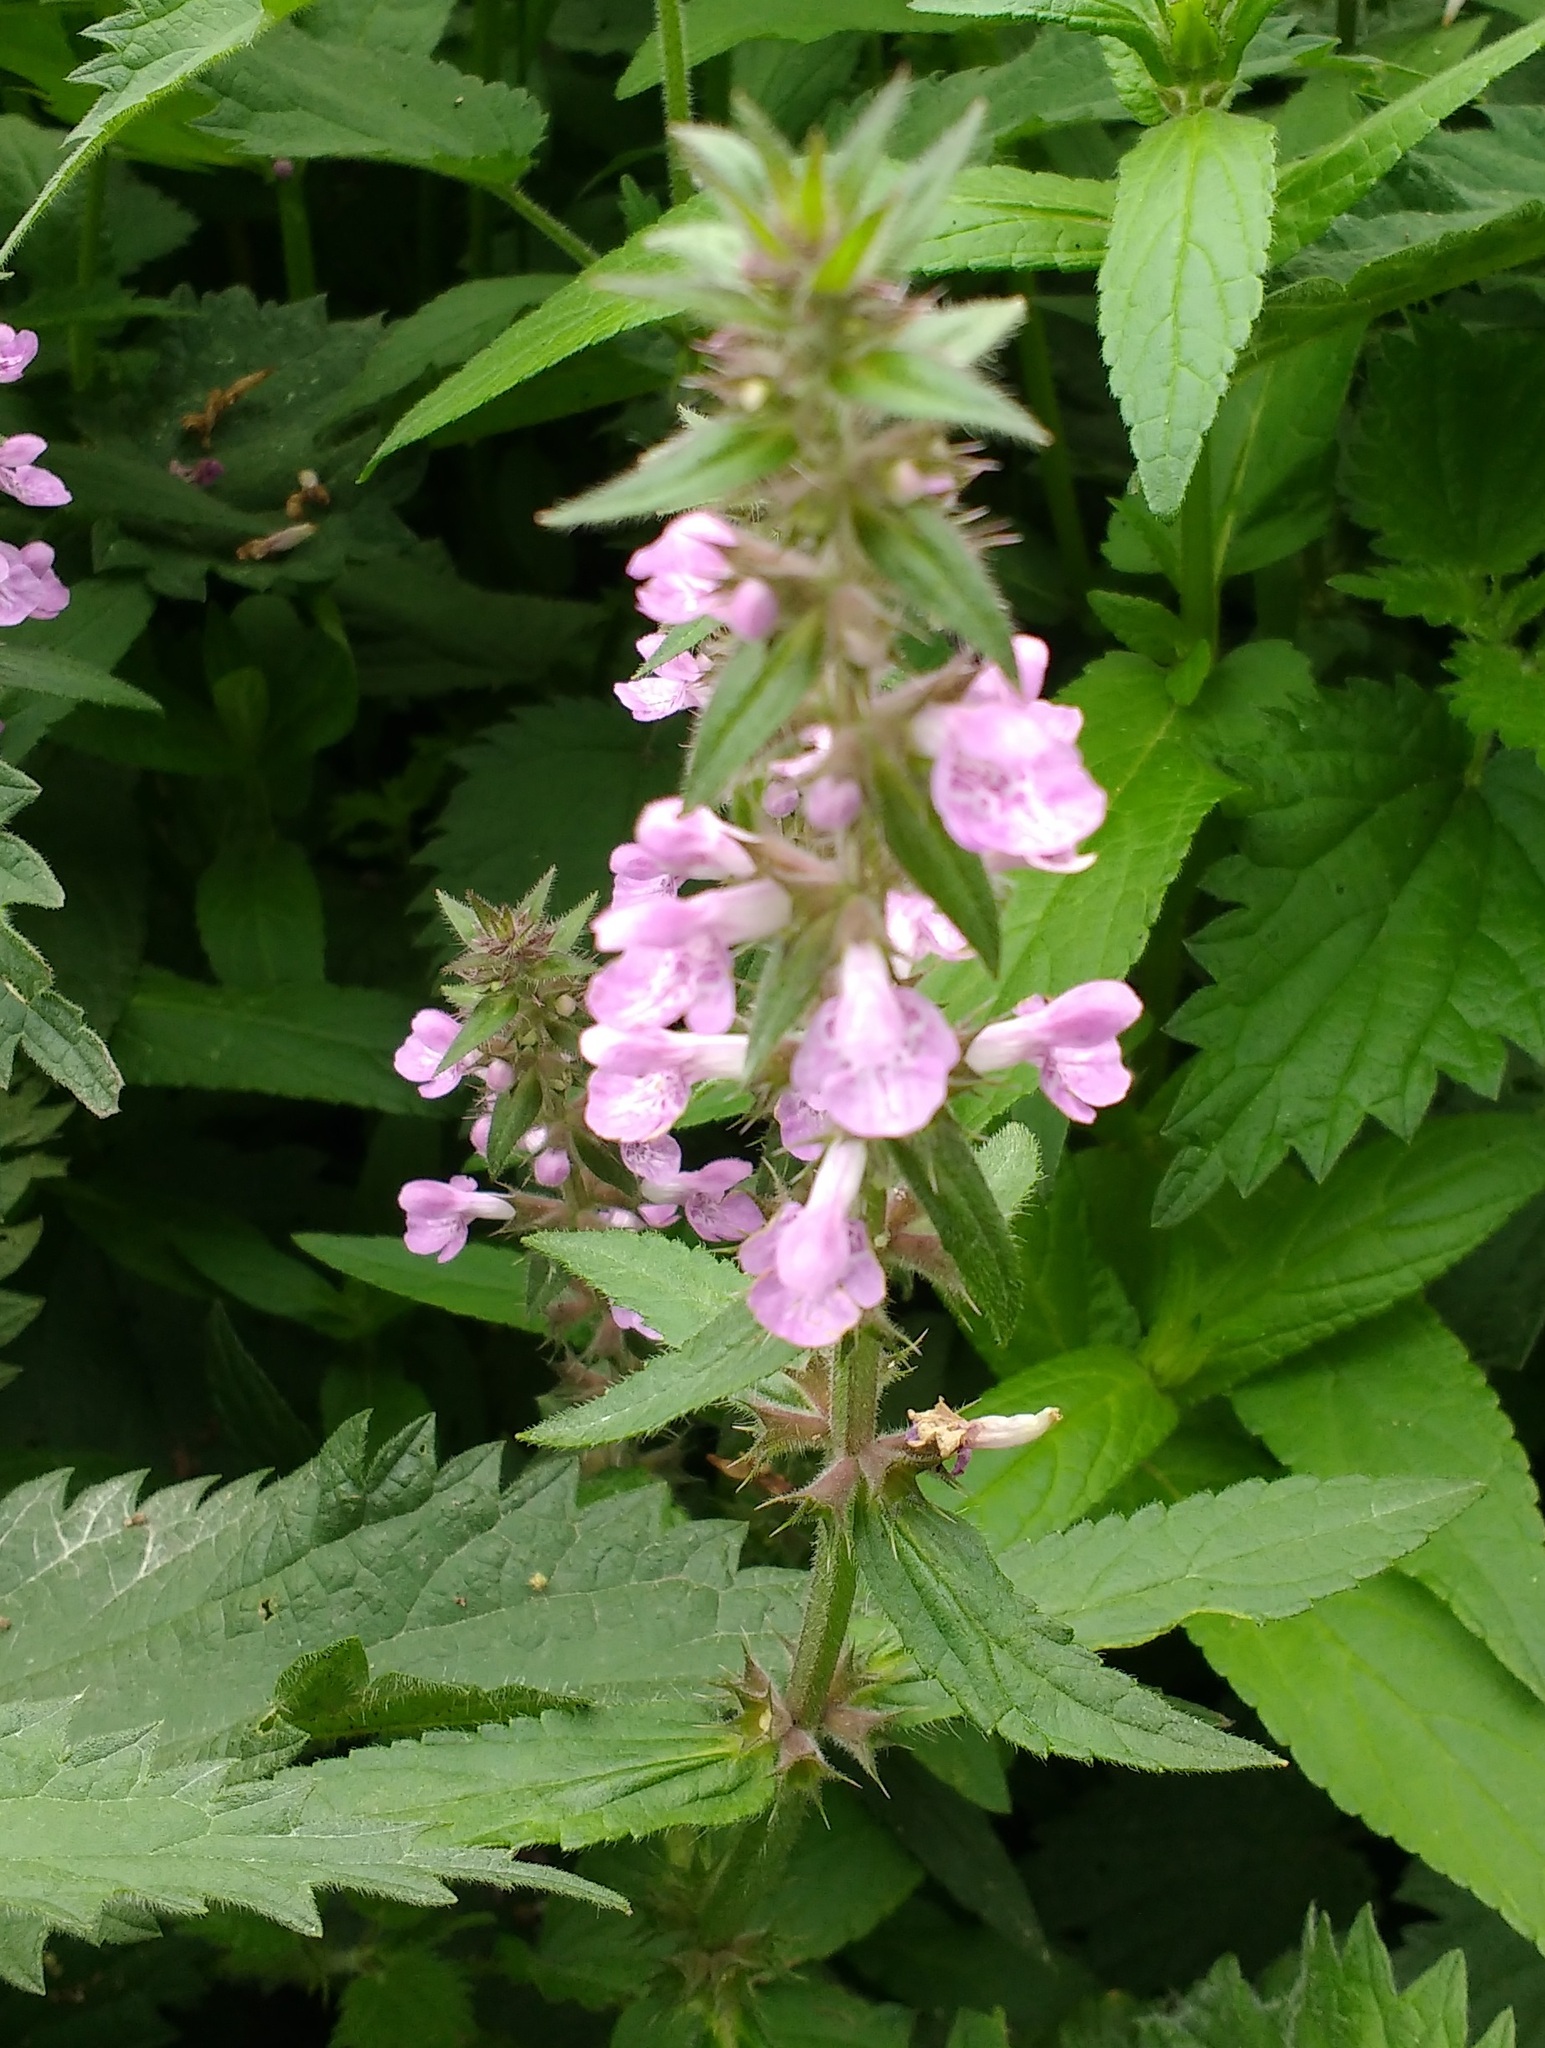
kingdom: Plantae
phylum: Tracheophyta
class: Magnoliopsida
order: Lamiales
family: Lamiaceae
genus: Stachys
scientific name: Stachys palustris
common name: Marsh woundwort
